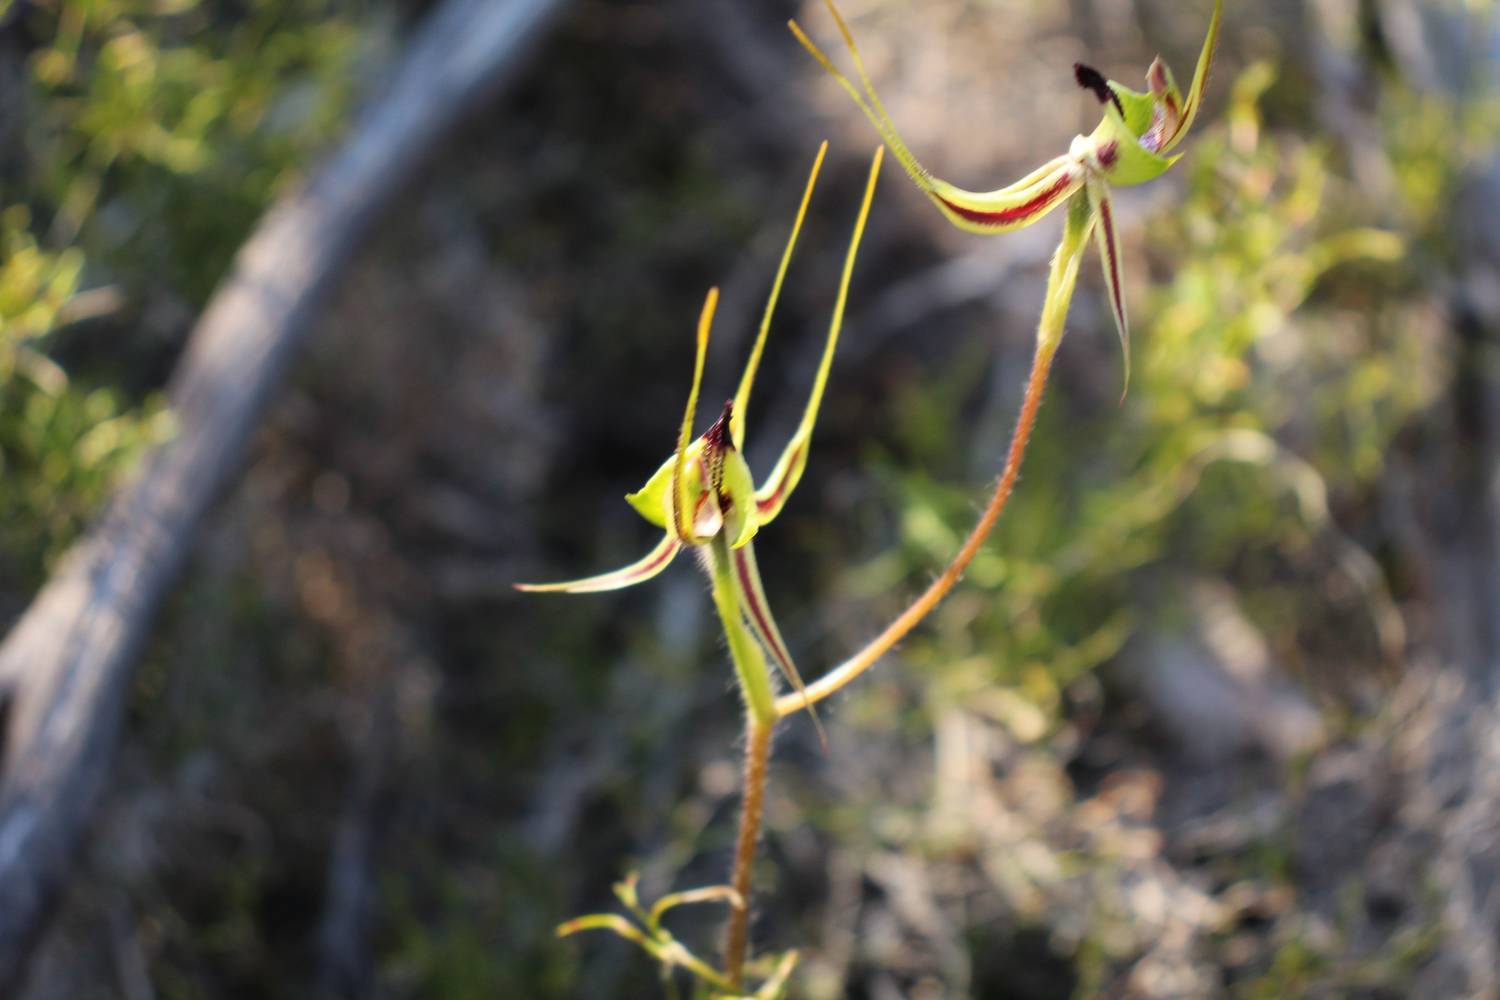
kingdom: Plantae
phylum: Tracheophyta
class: Liliopsida
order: Asparagales
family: Orchidaceae
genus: Caladenia
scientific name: Caladenia exstans
